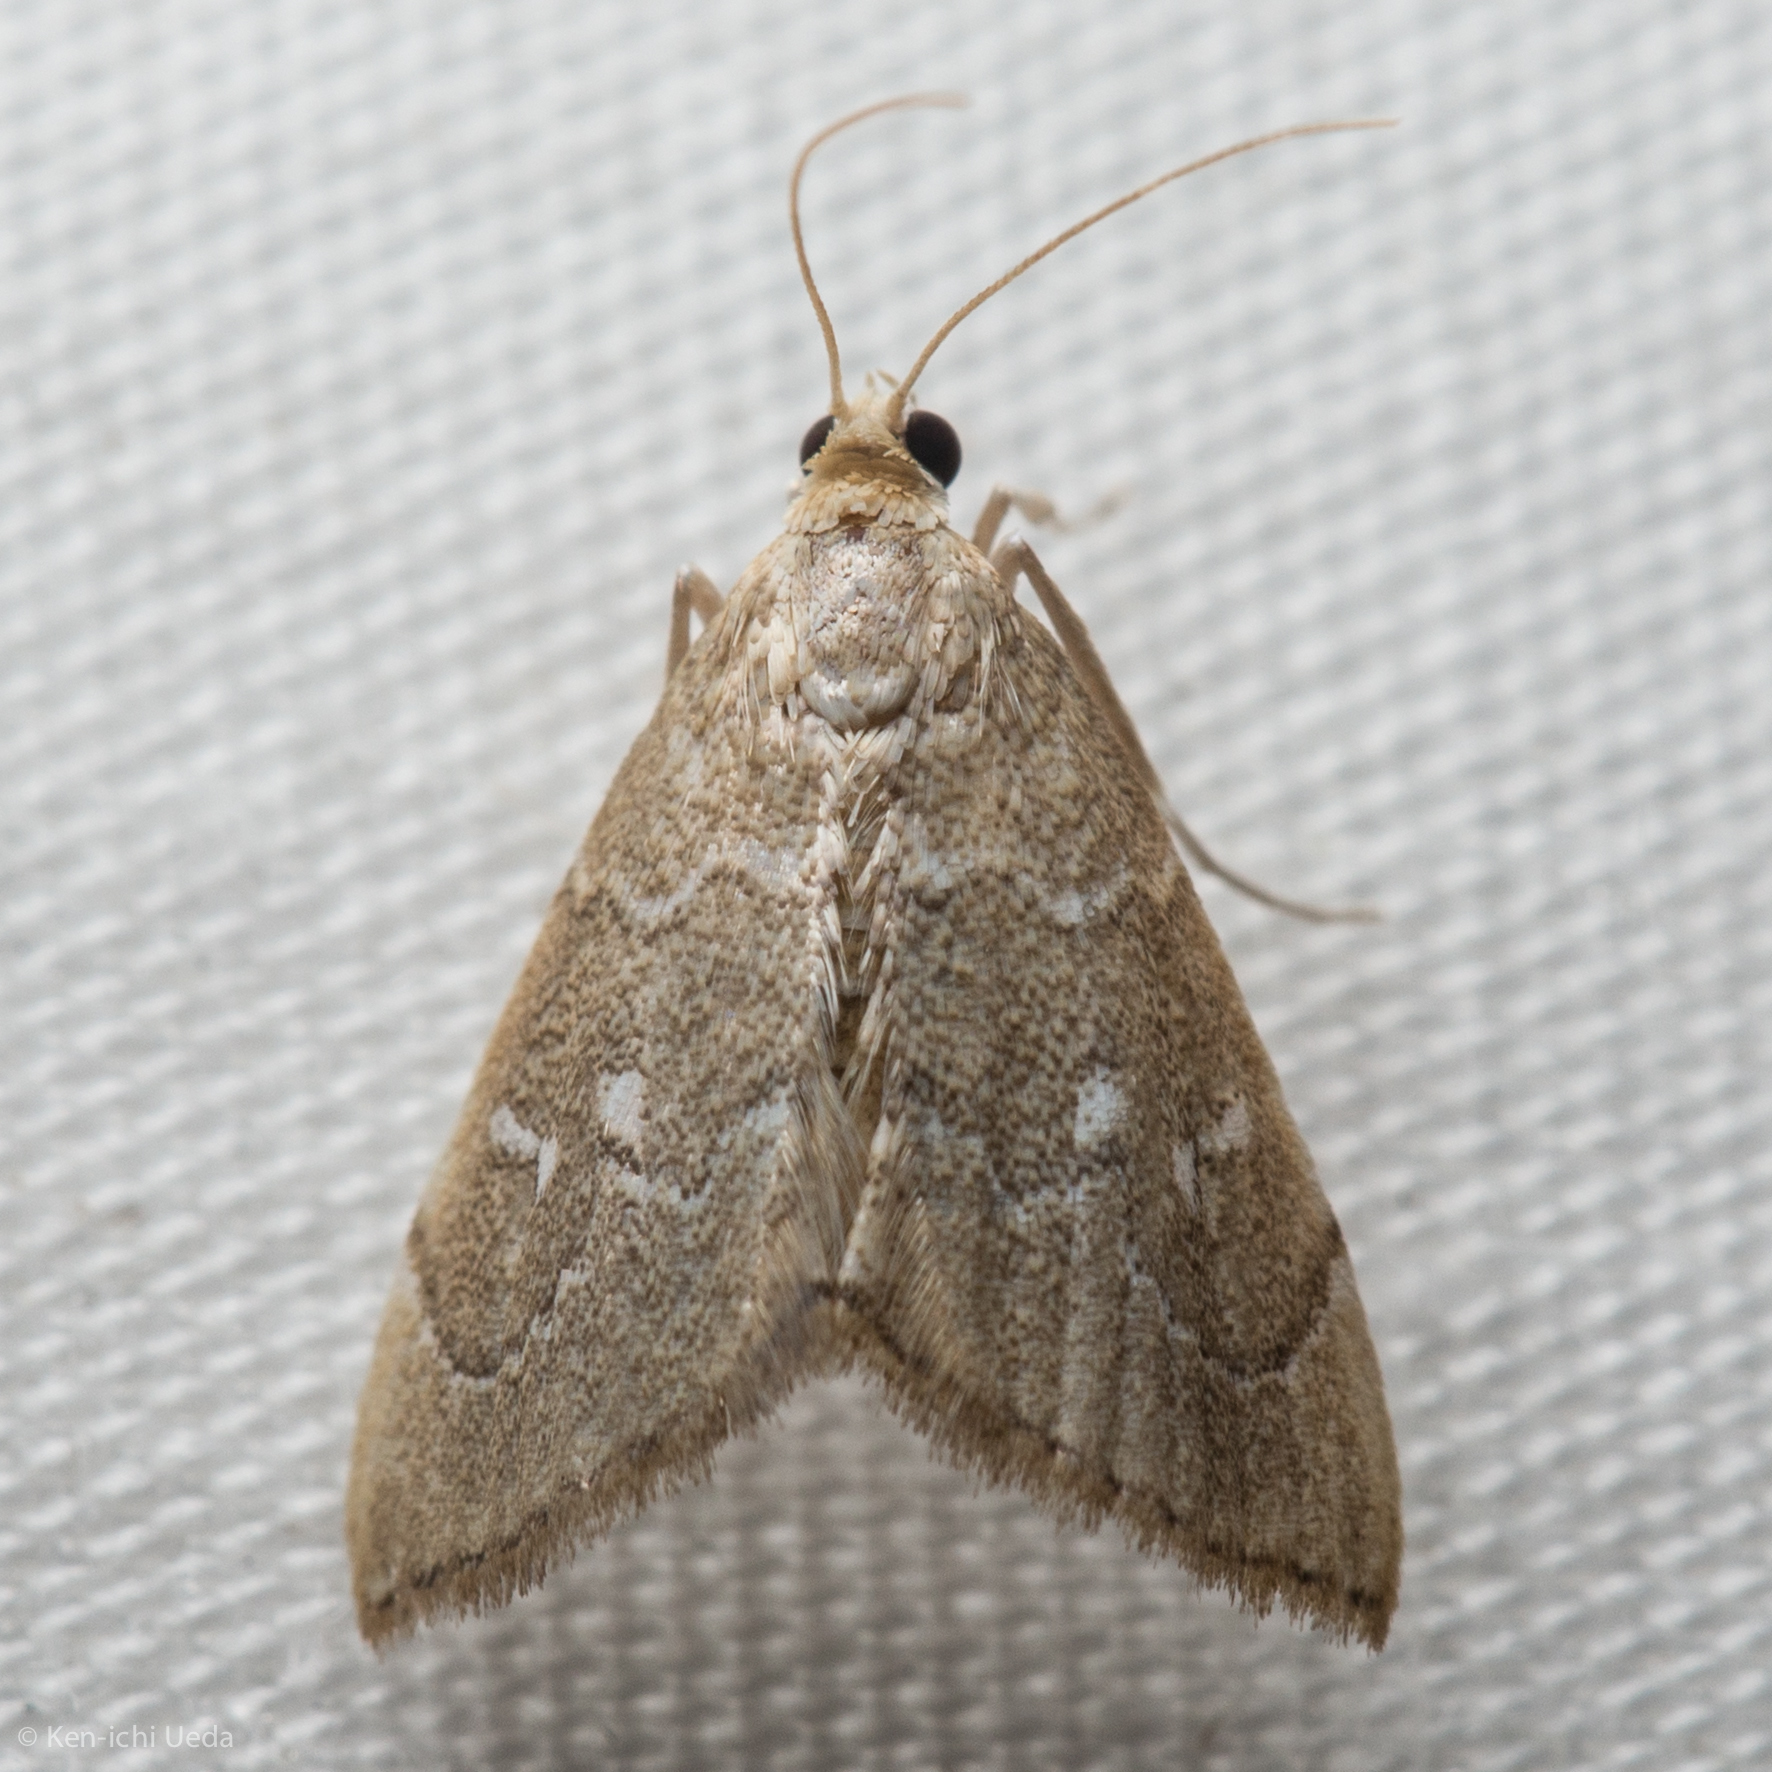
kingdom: Animalia
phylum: Arthropoda
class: Insecta
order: Lepidoptera
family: Crambidae
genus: Nephrogramma
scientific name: Nephrogramma separata
